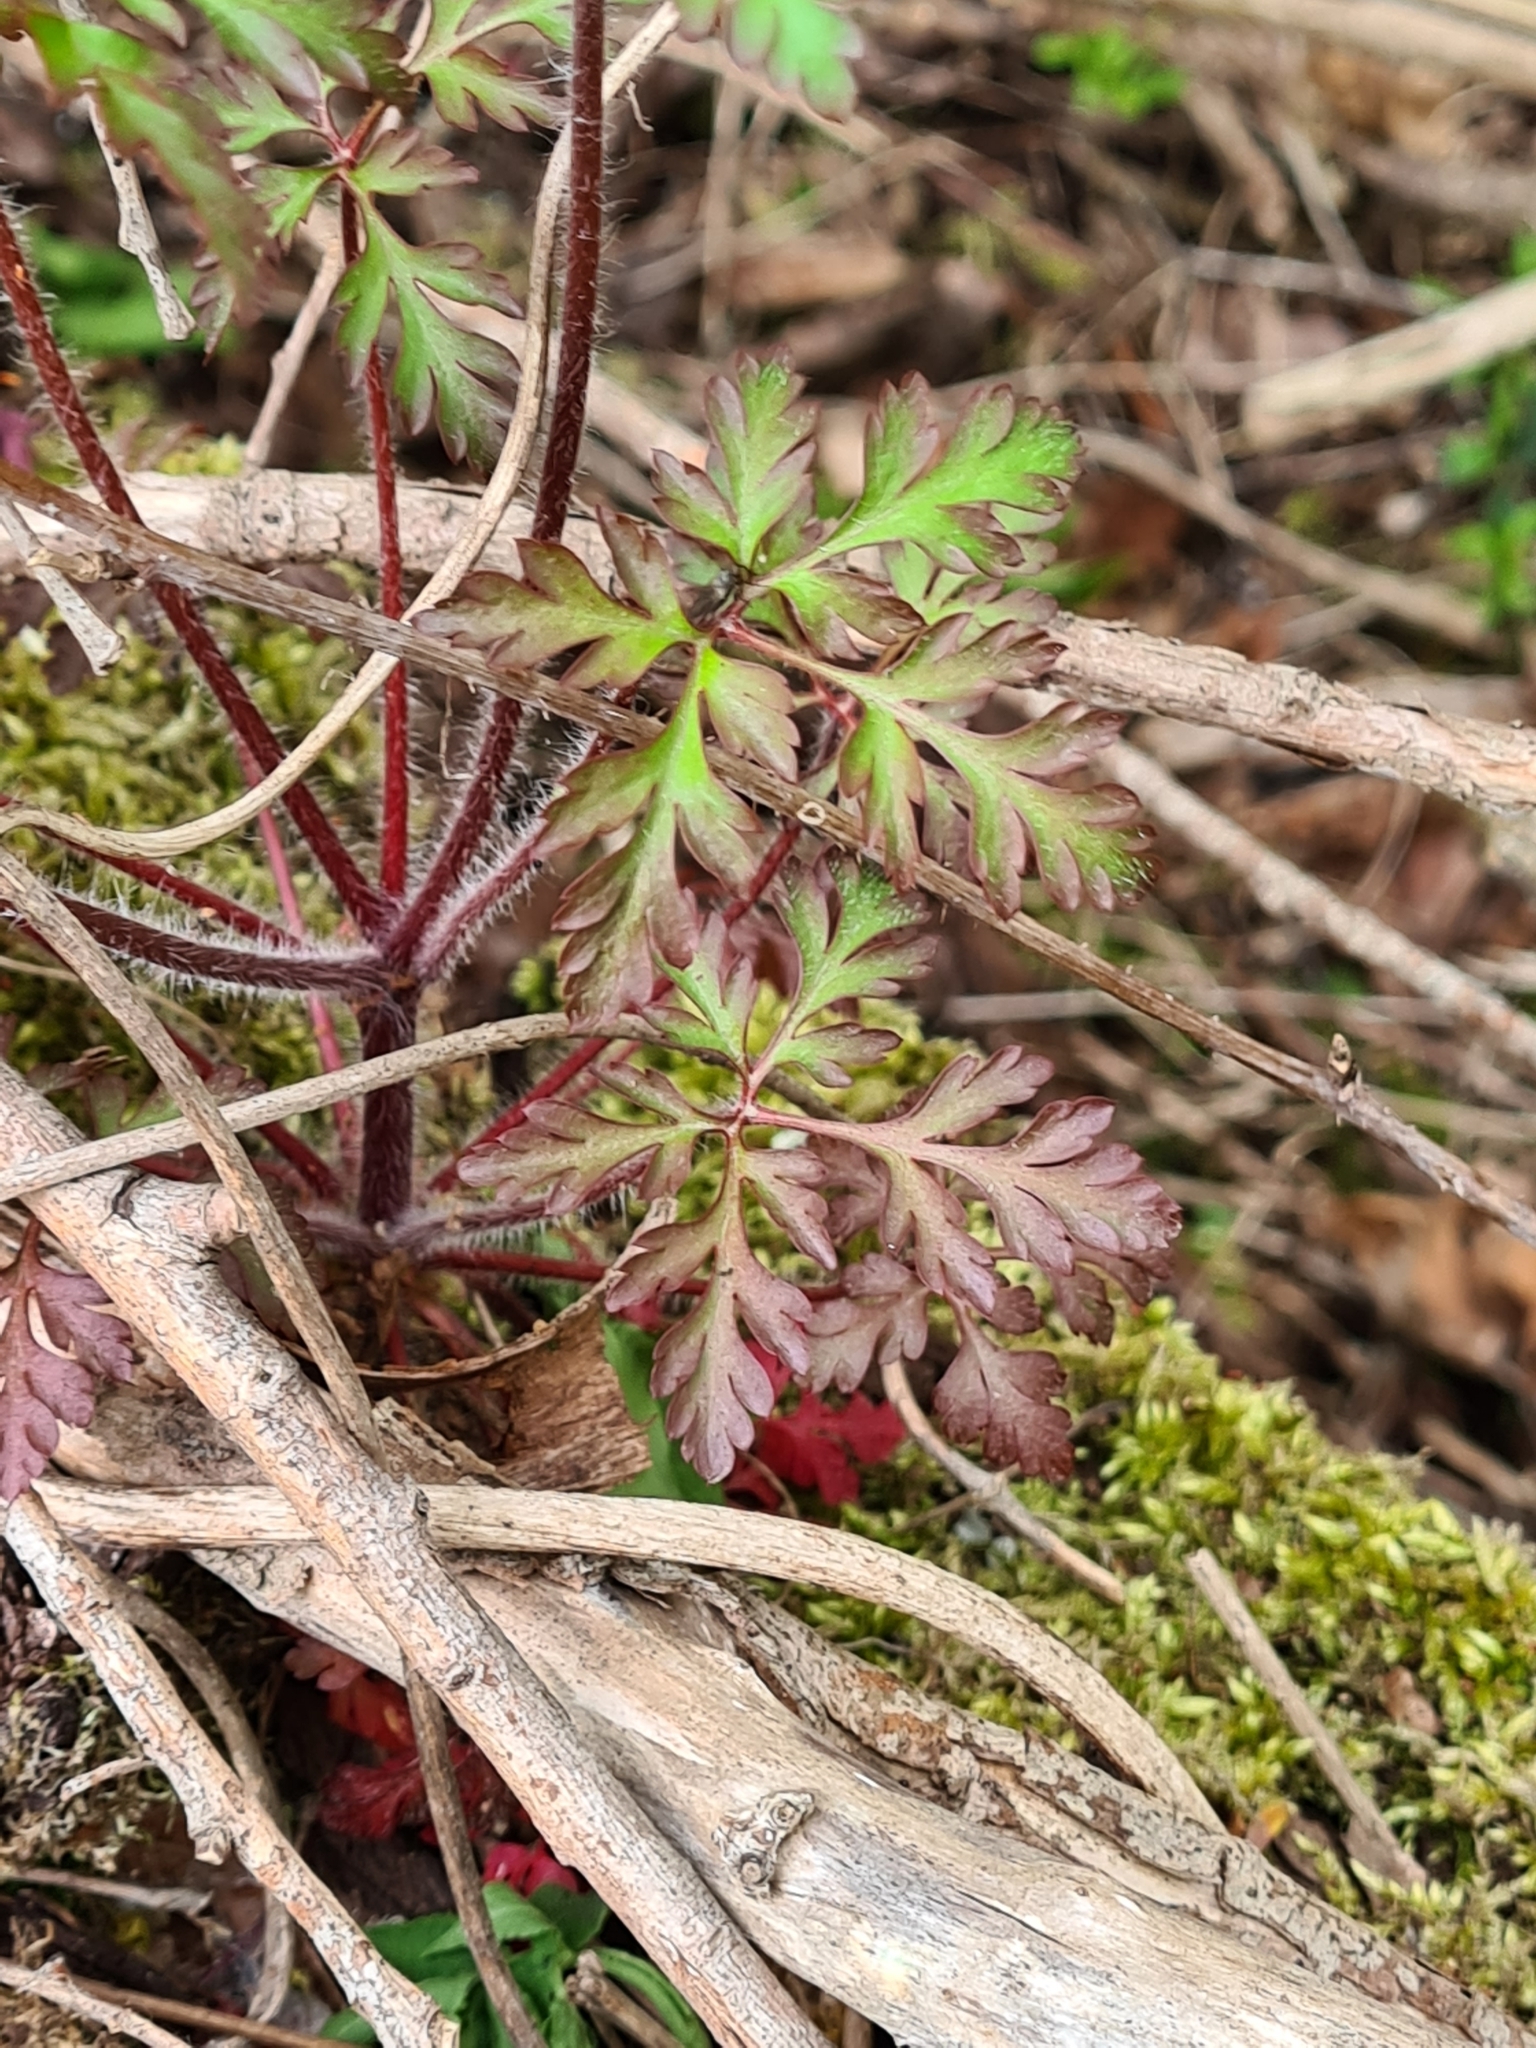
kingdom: Plantae
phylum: Tracheophyta
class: Magnoliopsida
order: Geraniales
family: Geraniaceae
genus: Geranium
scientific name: Geranium robertianum
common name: Herb-robert
